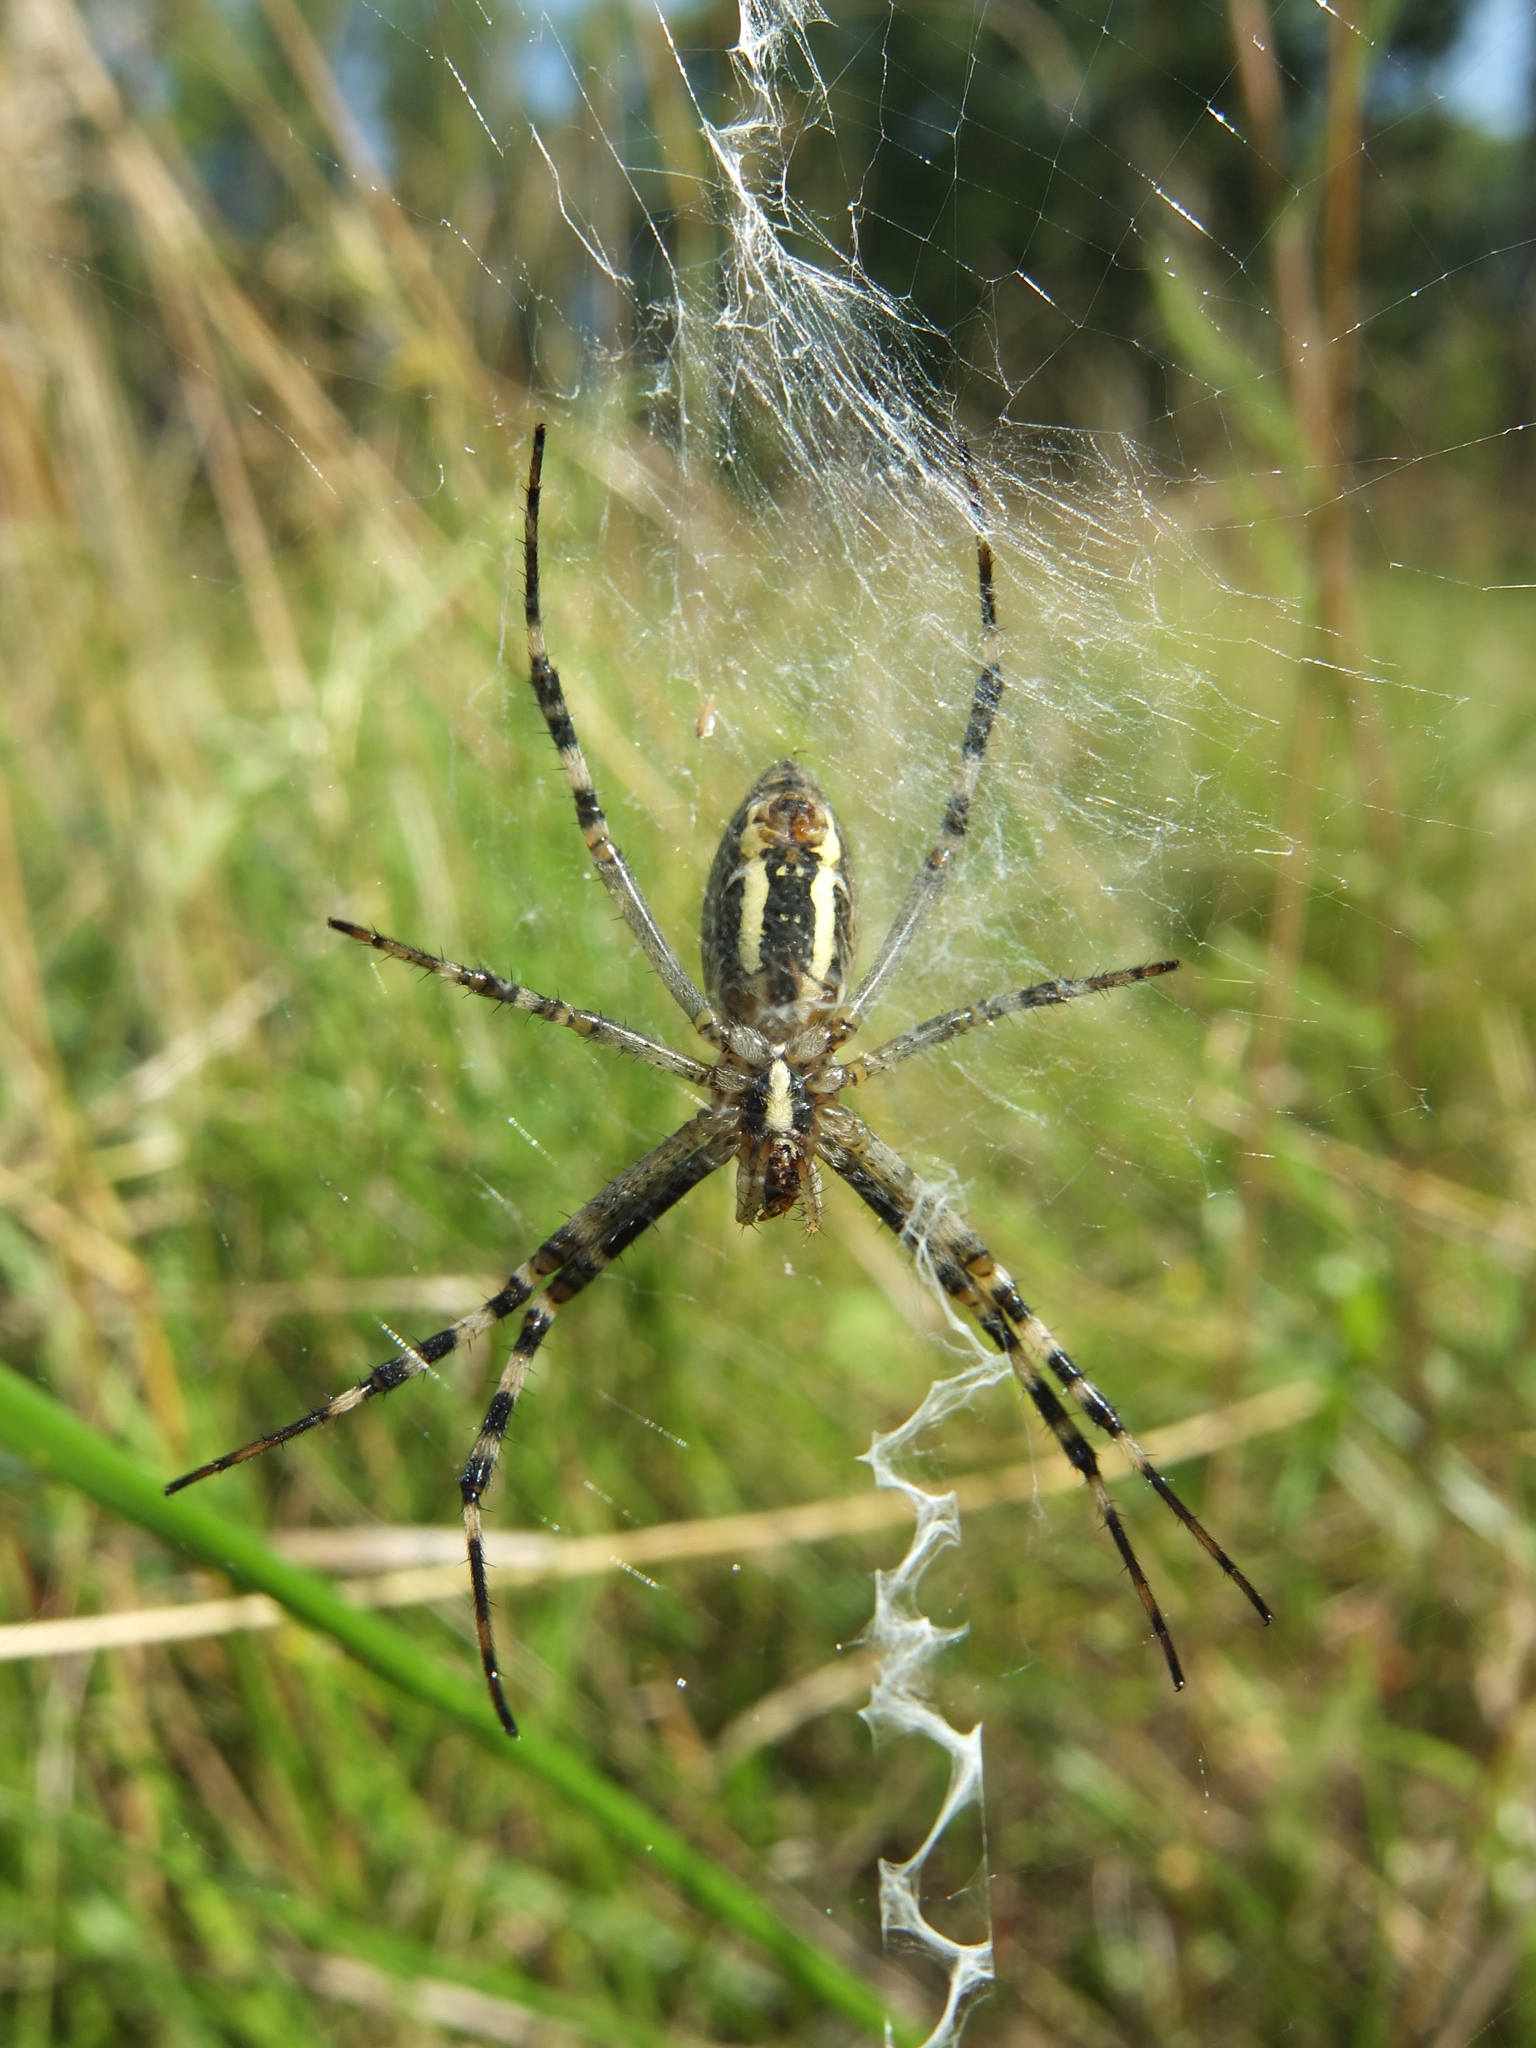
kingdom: Animalia
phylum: Arthropoda
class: Arachnida
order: Araneae
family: Araneidae
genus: Argiope
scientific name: Argiope bruennichi
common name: Wasp spider
